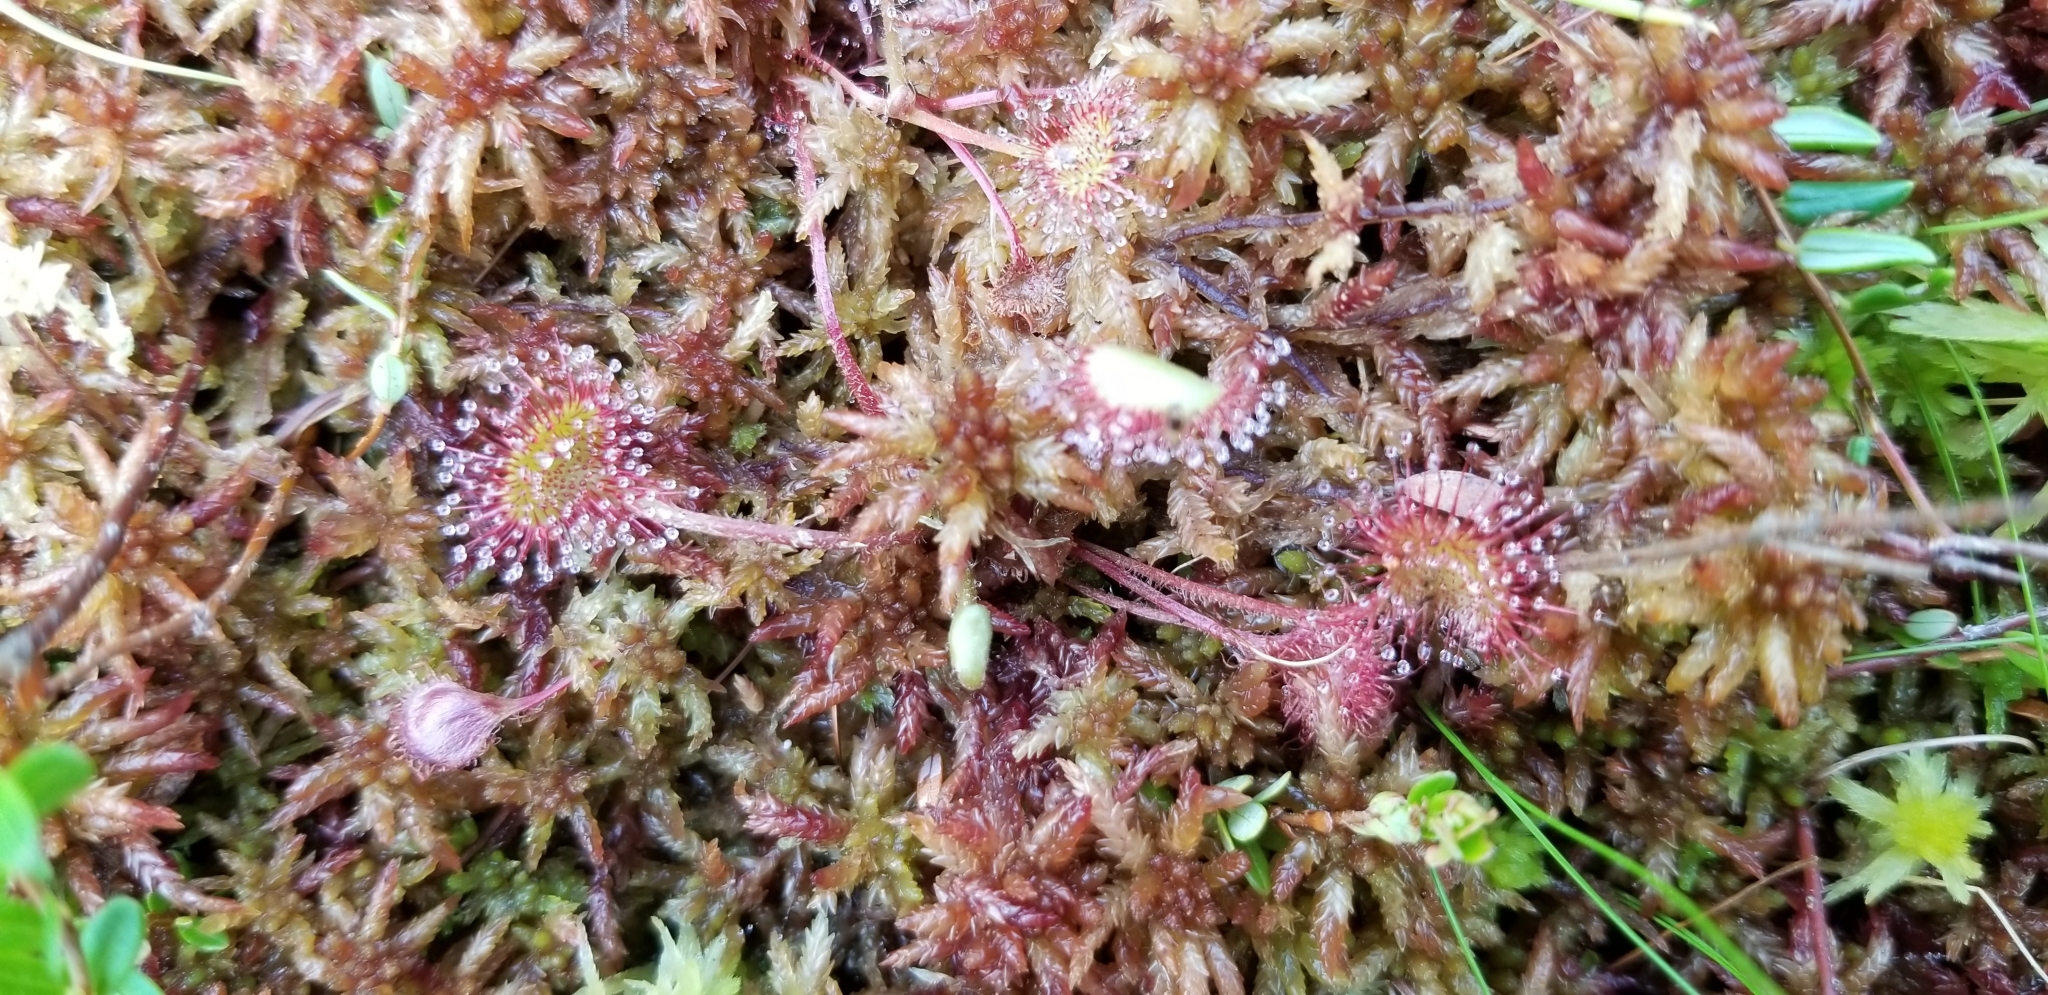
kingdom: Plantae
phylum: Tracheophyta
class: Magnoliopsida
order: Caryophyllales
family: Droseraceae
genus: Drosera
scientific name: Drosera rotundifolia
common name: Round-leaved sundew
